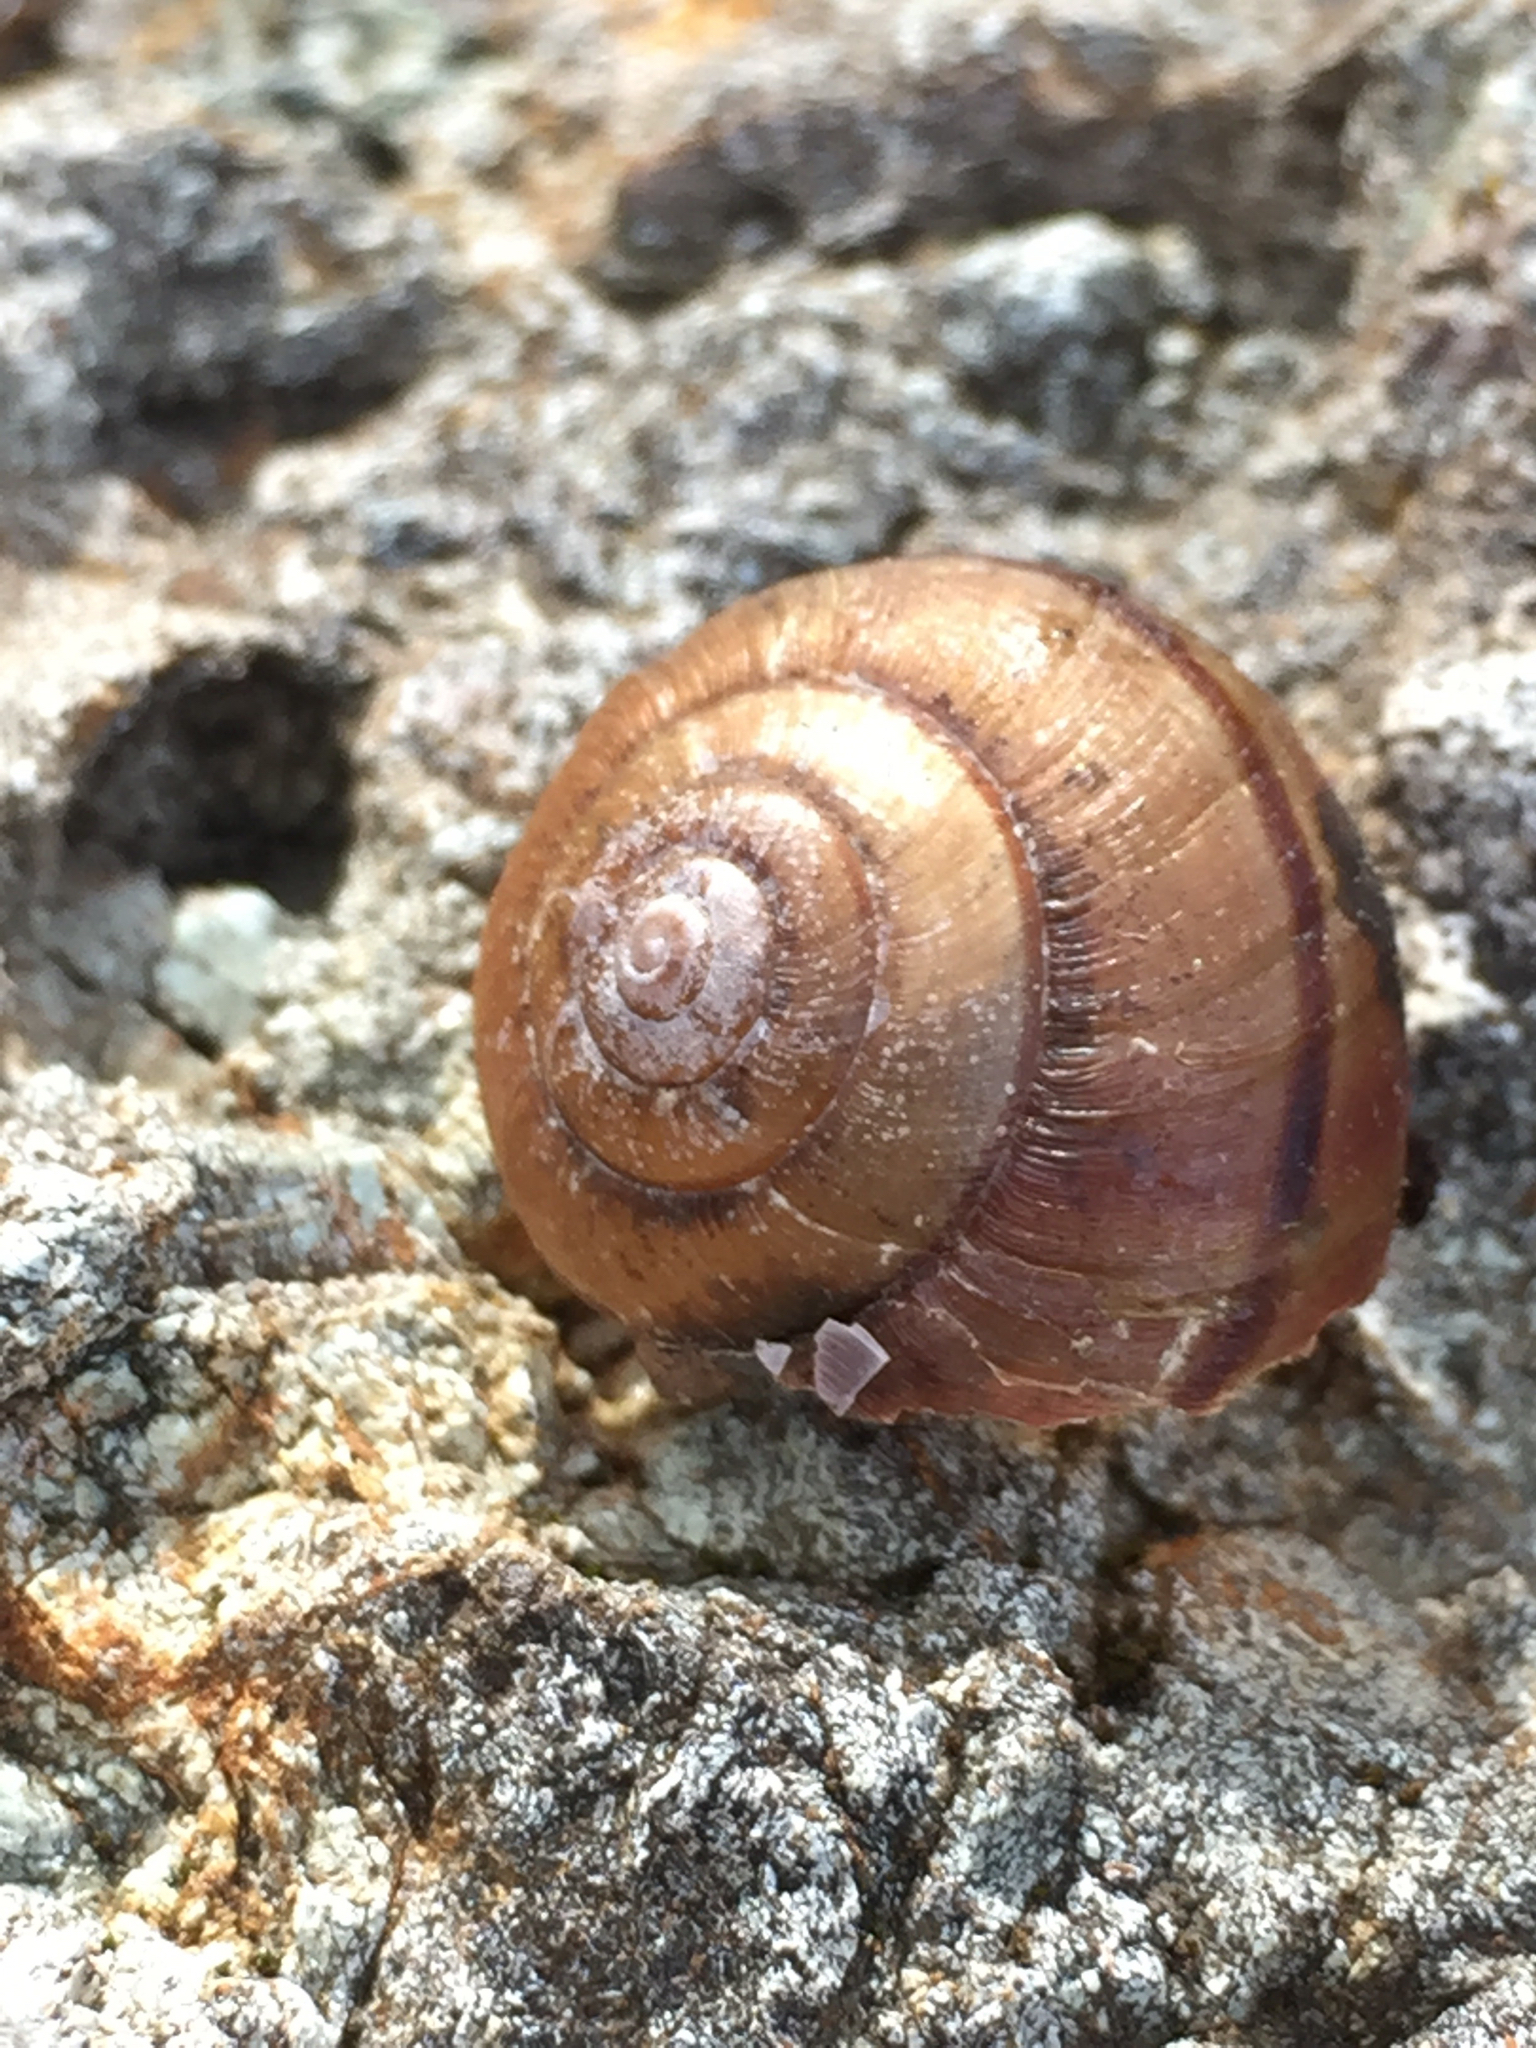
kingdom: Animalia
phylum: Mollusca
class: Gastropoda
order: Stylommatophora
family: Xanthonychidae
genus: Helminthoglypta
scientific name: Helminthoglypta nickliniana
